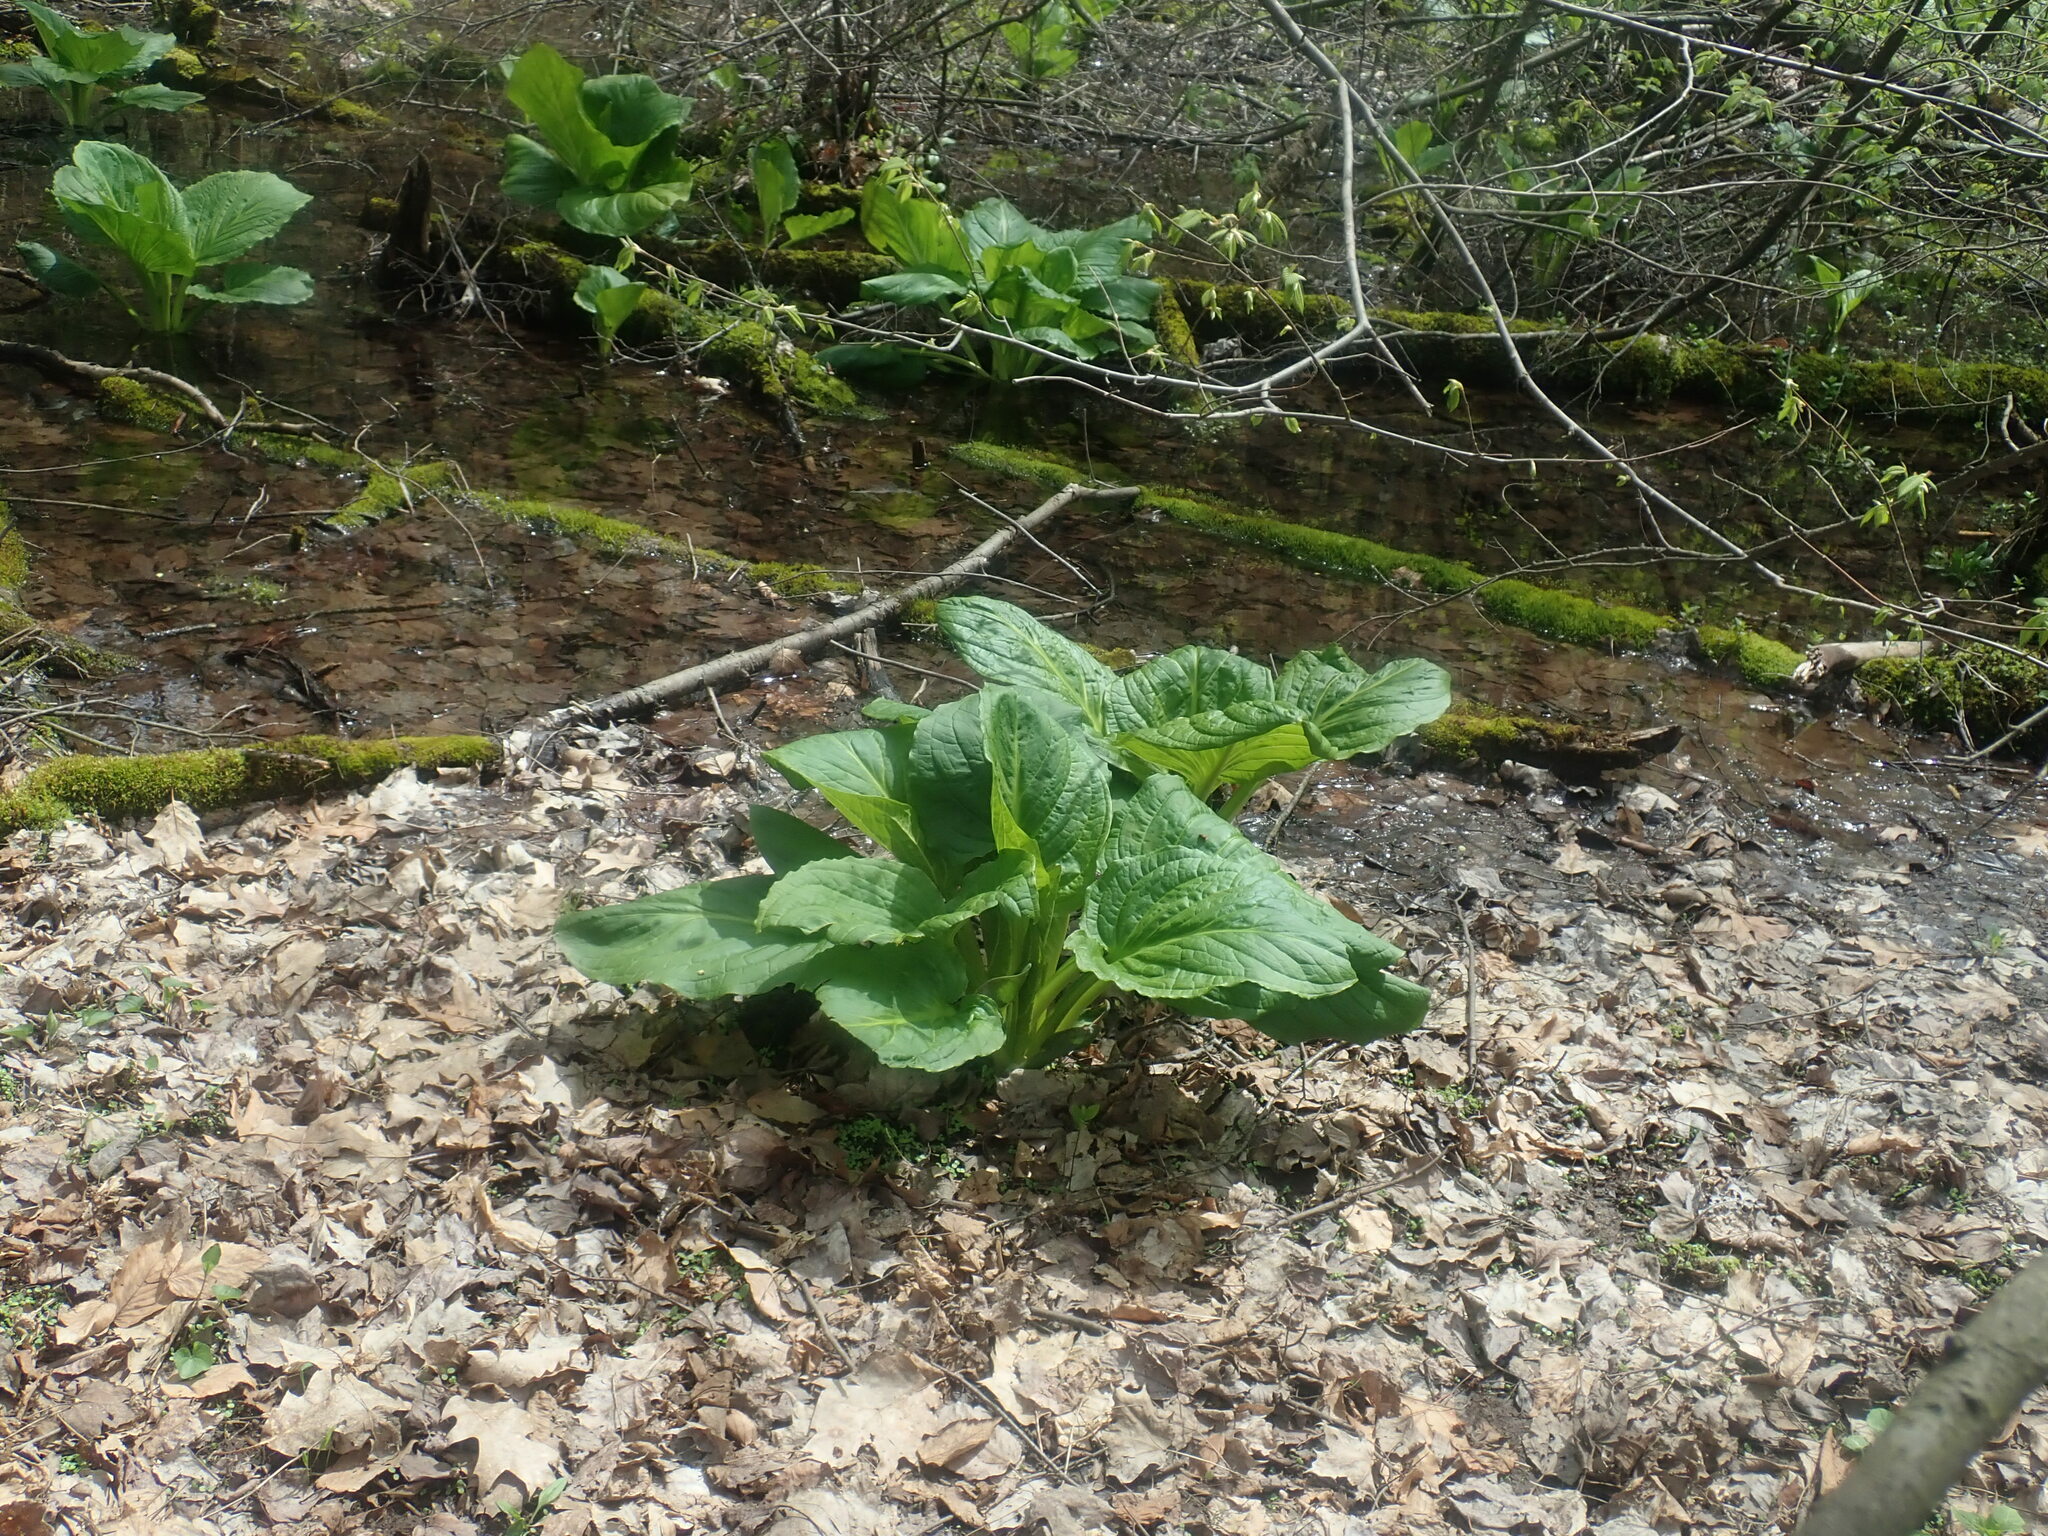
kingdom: Plantae
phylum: Tracheophyta
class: Liliopsida
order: Alismatales
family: Araceae
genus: Symplocarpus
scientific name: Symplocarpus foetidus
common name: Eastern skunk cabbage
